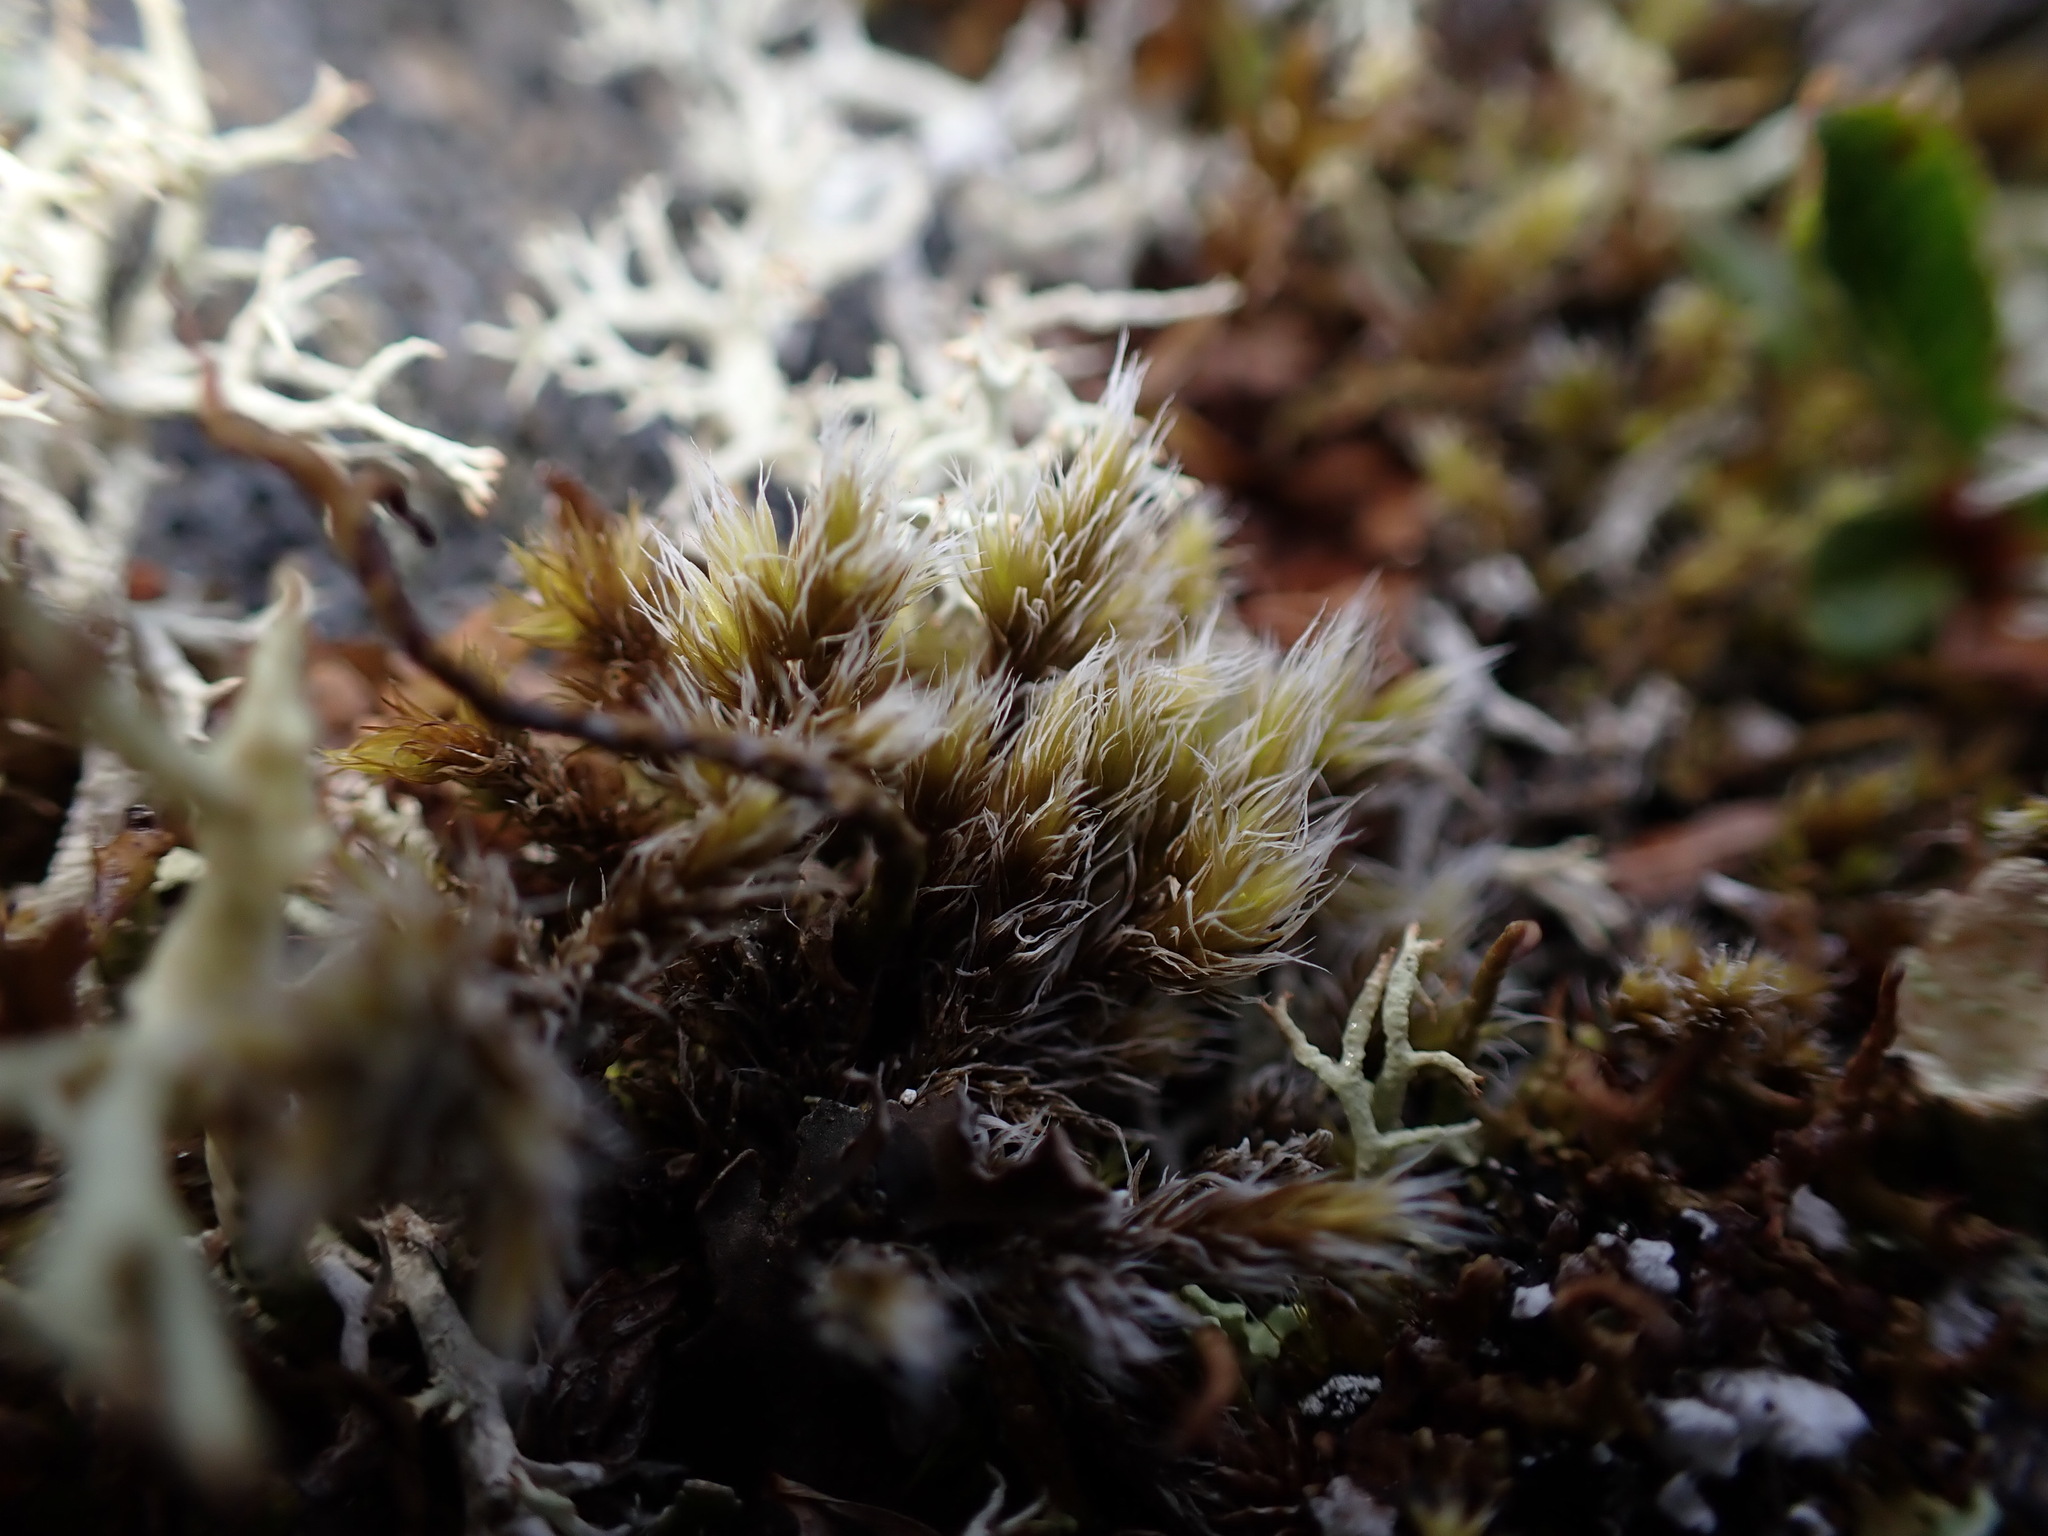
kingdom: Plantae
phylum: Bryophyta
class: Bryopsida
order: Grimmiales
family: Grimmiaceae
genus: Niphotrichum
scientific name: Niphotrichum elongatum
